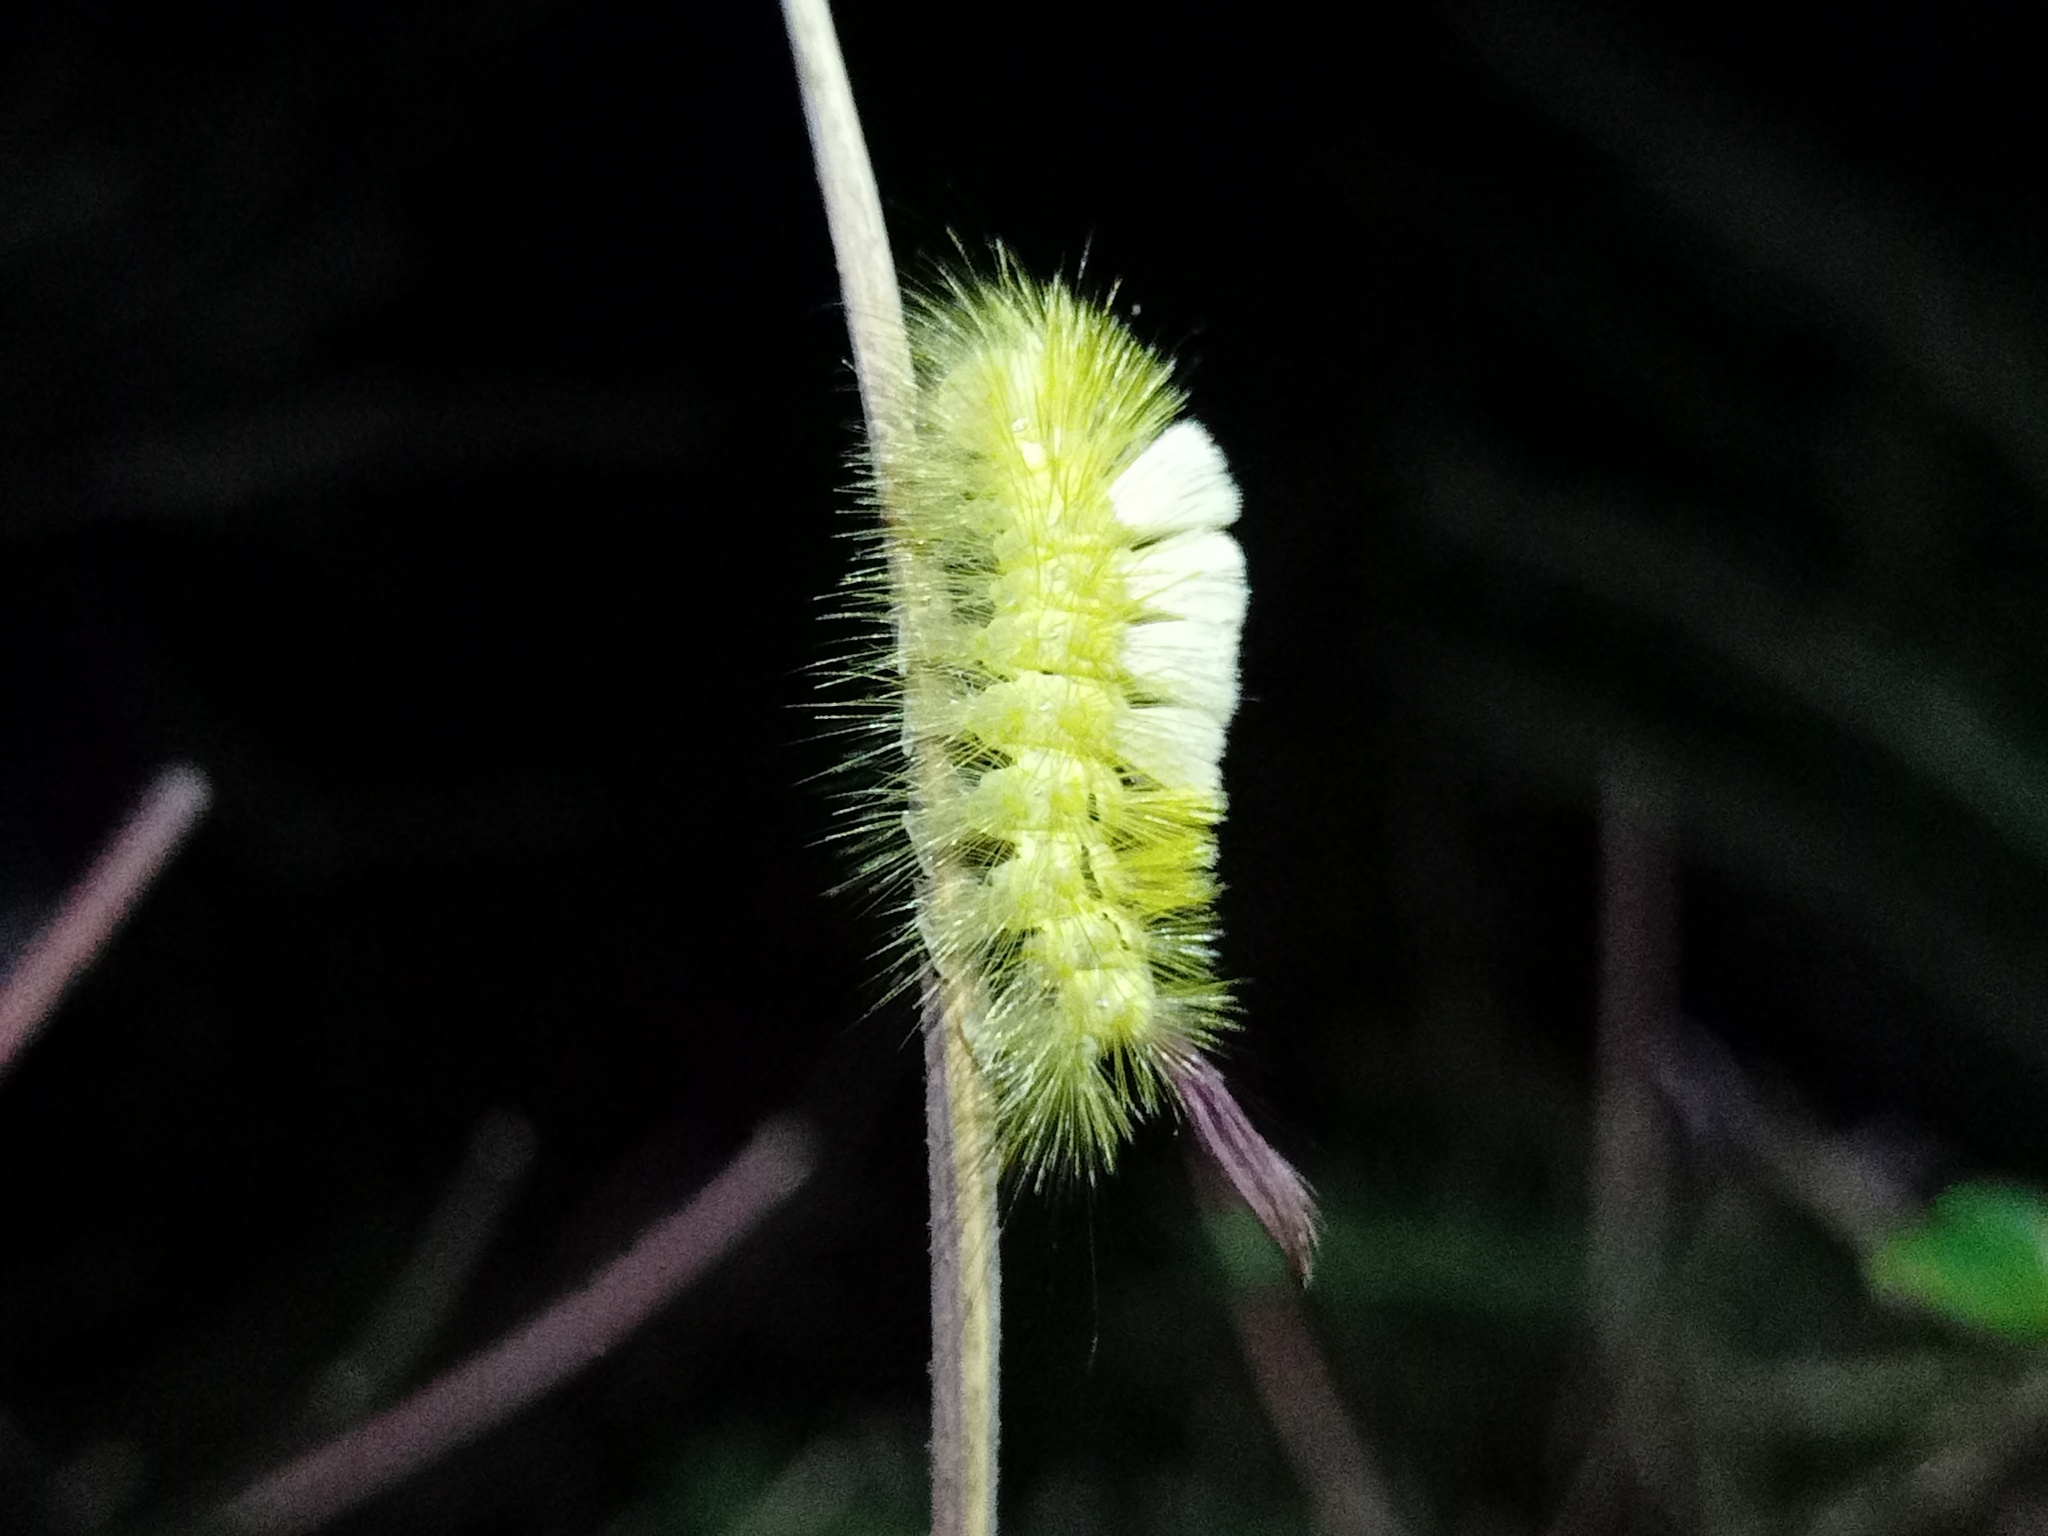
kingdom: Animalia
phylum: Arthropoda
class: Insecta
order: Lepidoptera
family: Erebidae
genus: Calliteara
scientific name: Calliteara pudibunda
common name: Pale tussock
